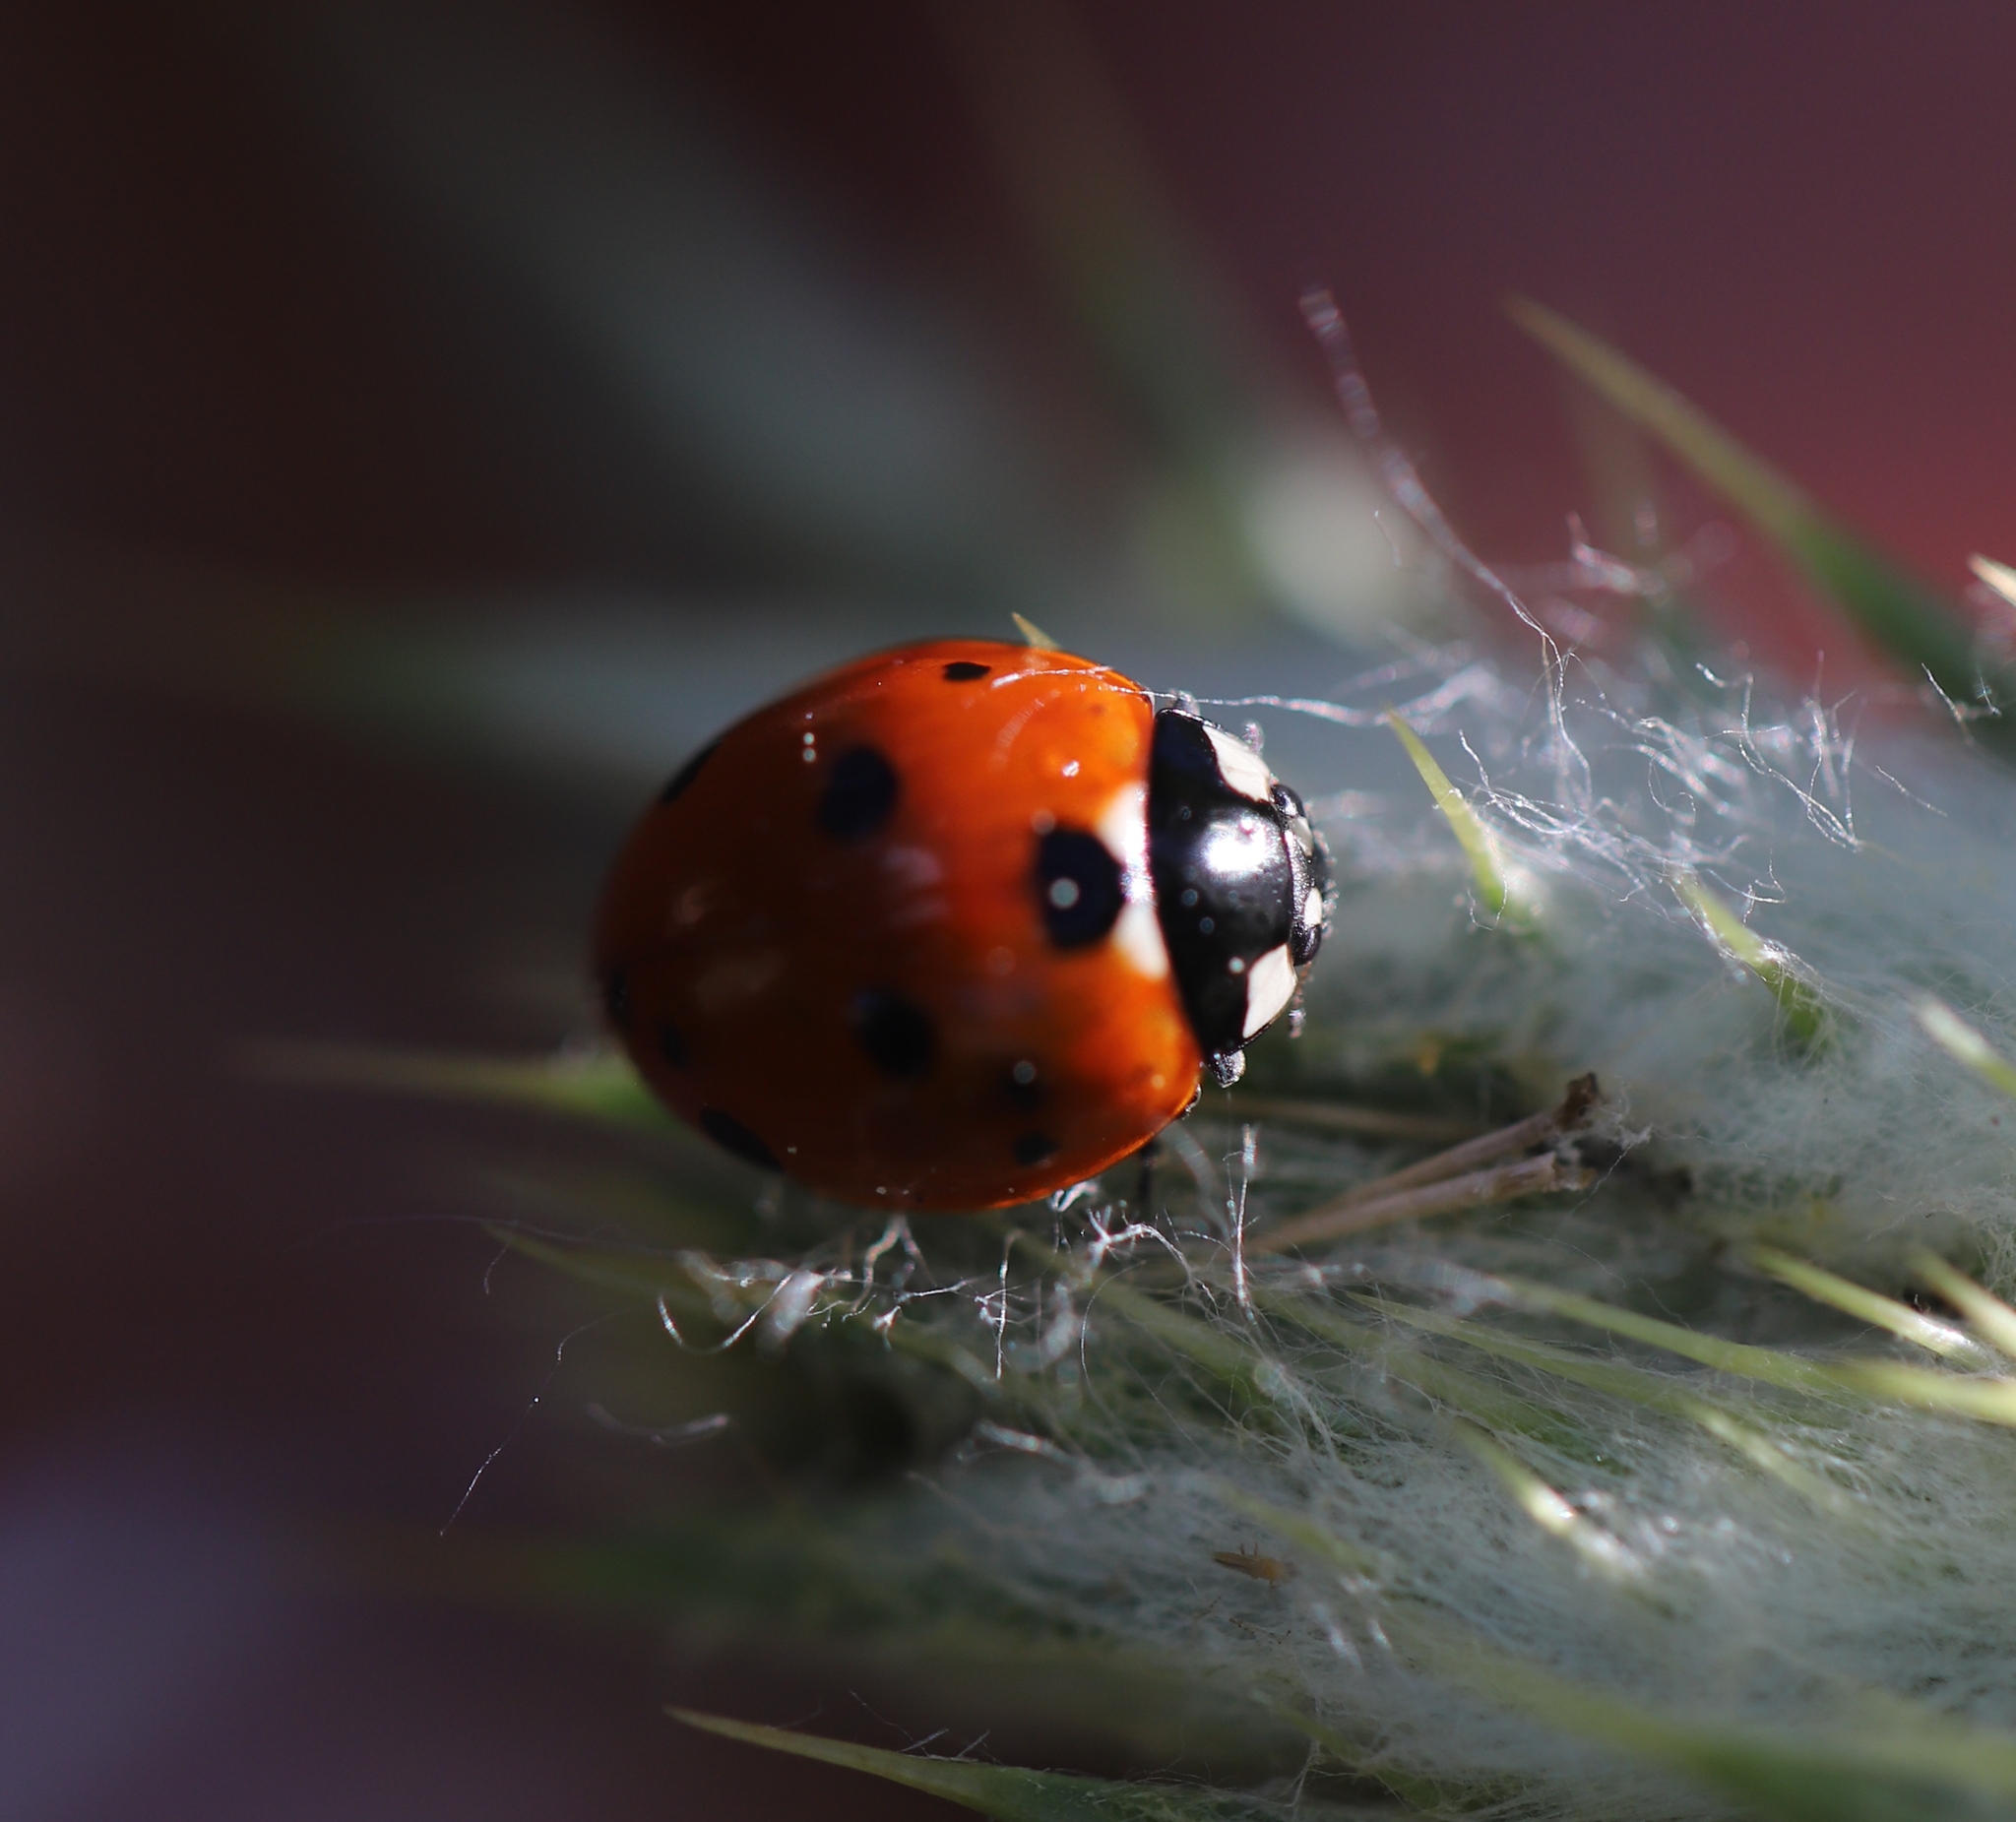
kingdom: Animalia
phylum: Arthropoda
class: Insecta
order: Coleoptera
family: Coccinellidae
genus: Coccinella
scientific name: Coccinella septempunctata
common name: Sevenspotted lady beetle
